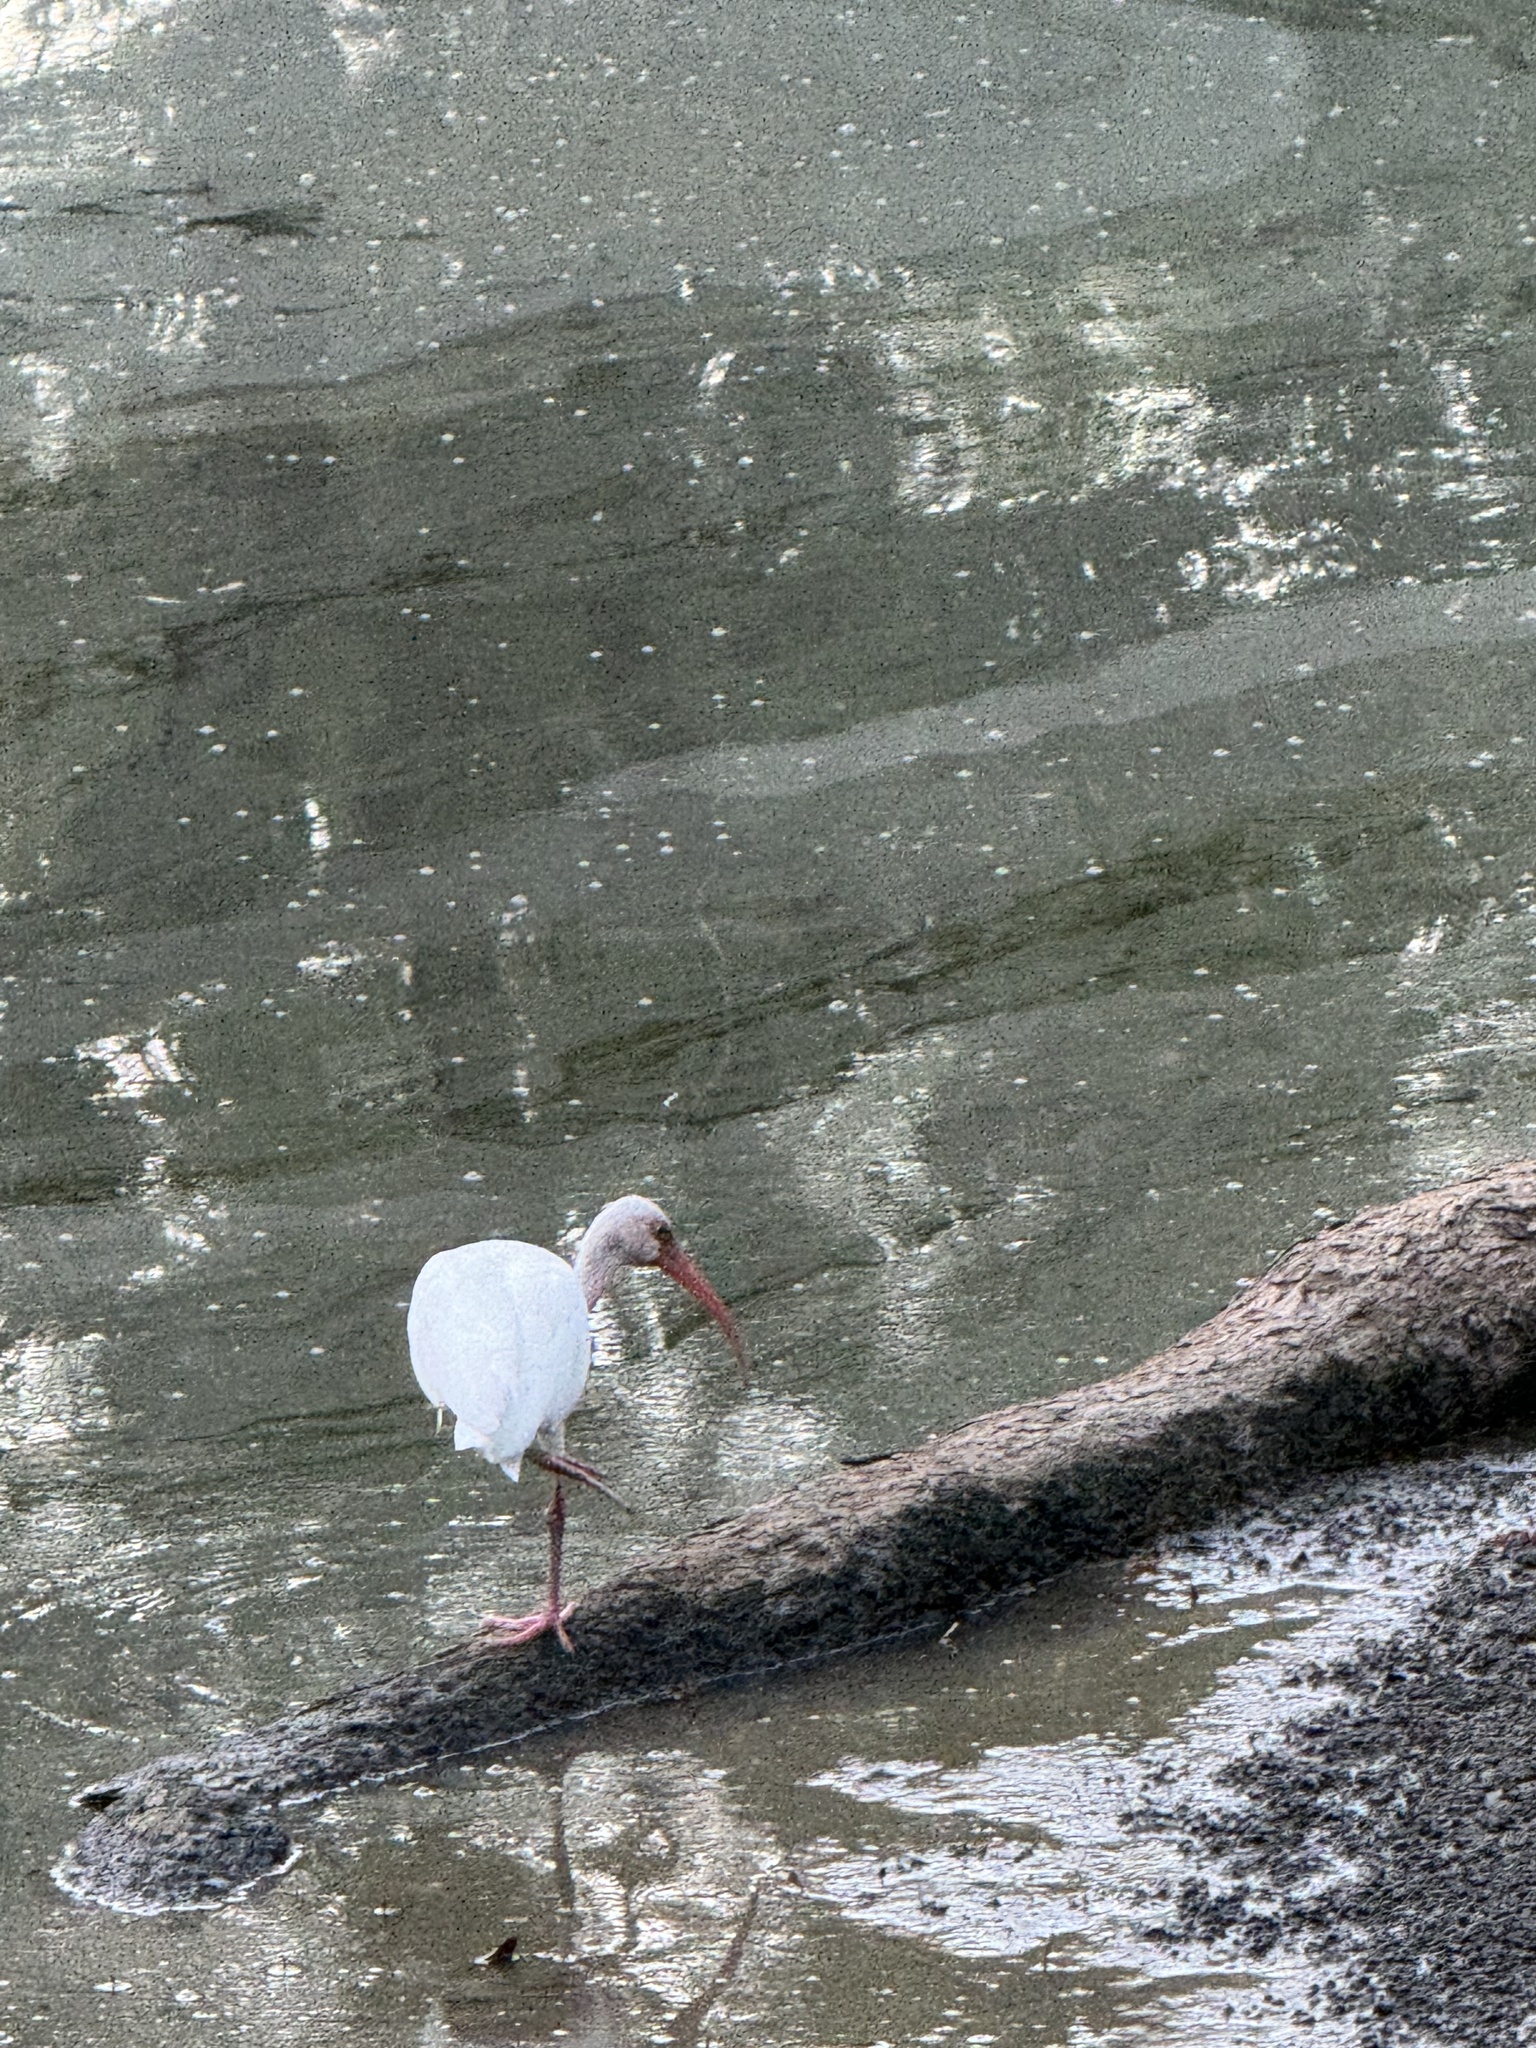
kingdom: Animalia
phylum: Chordata
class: Aves
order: Pelecaniformes
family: Threskiornithidae
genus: Eudocimus
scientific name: Eudocimus albus
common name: White ibis
